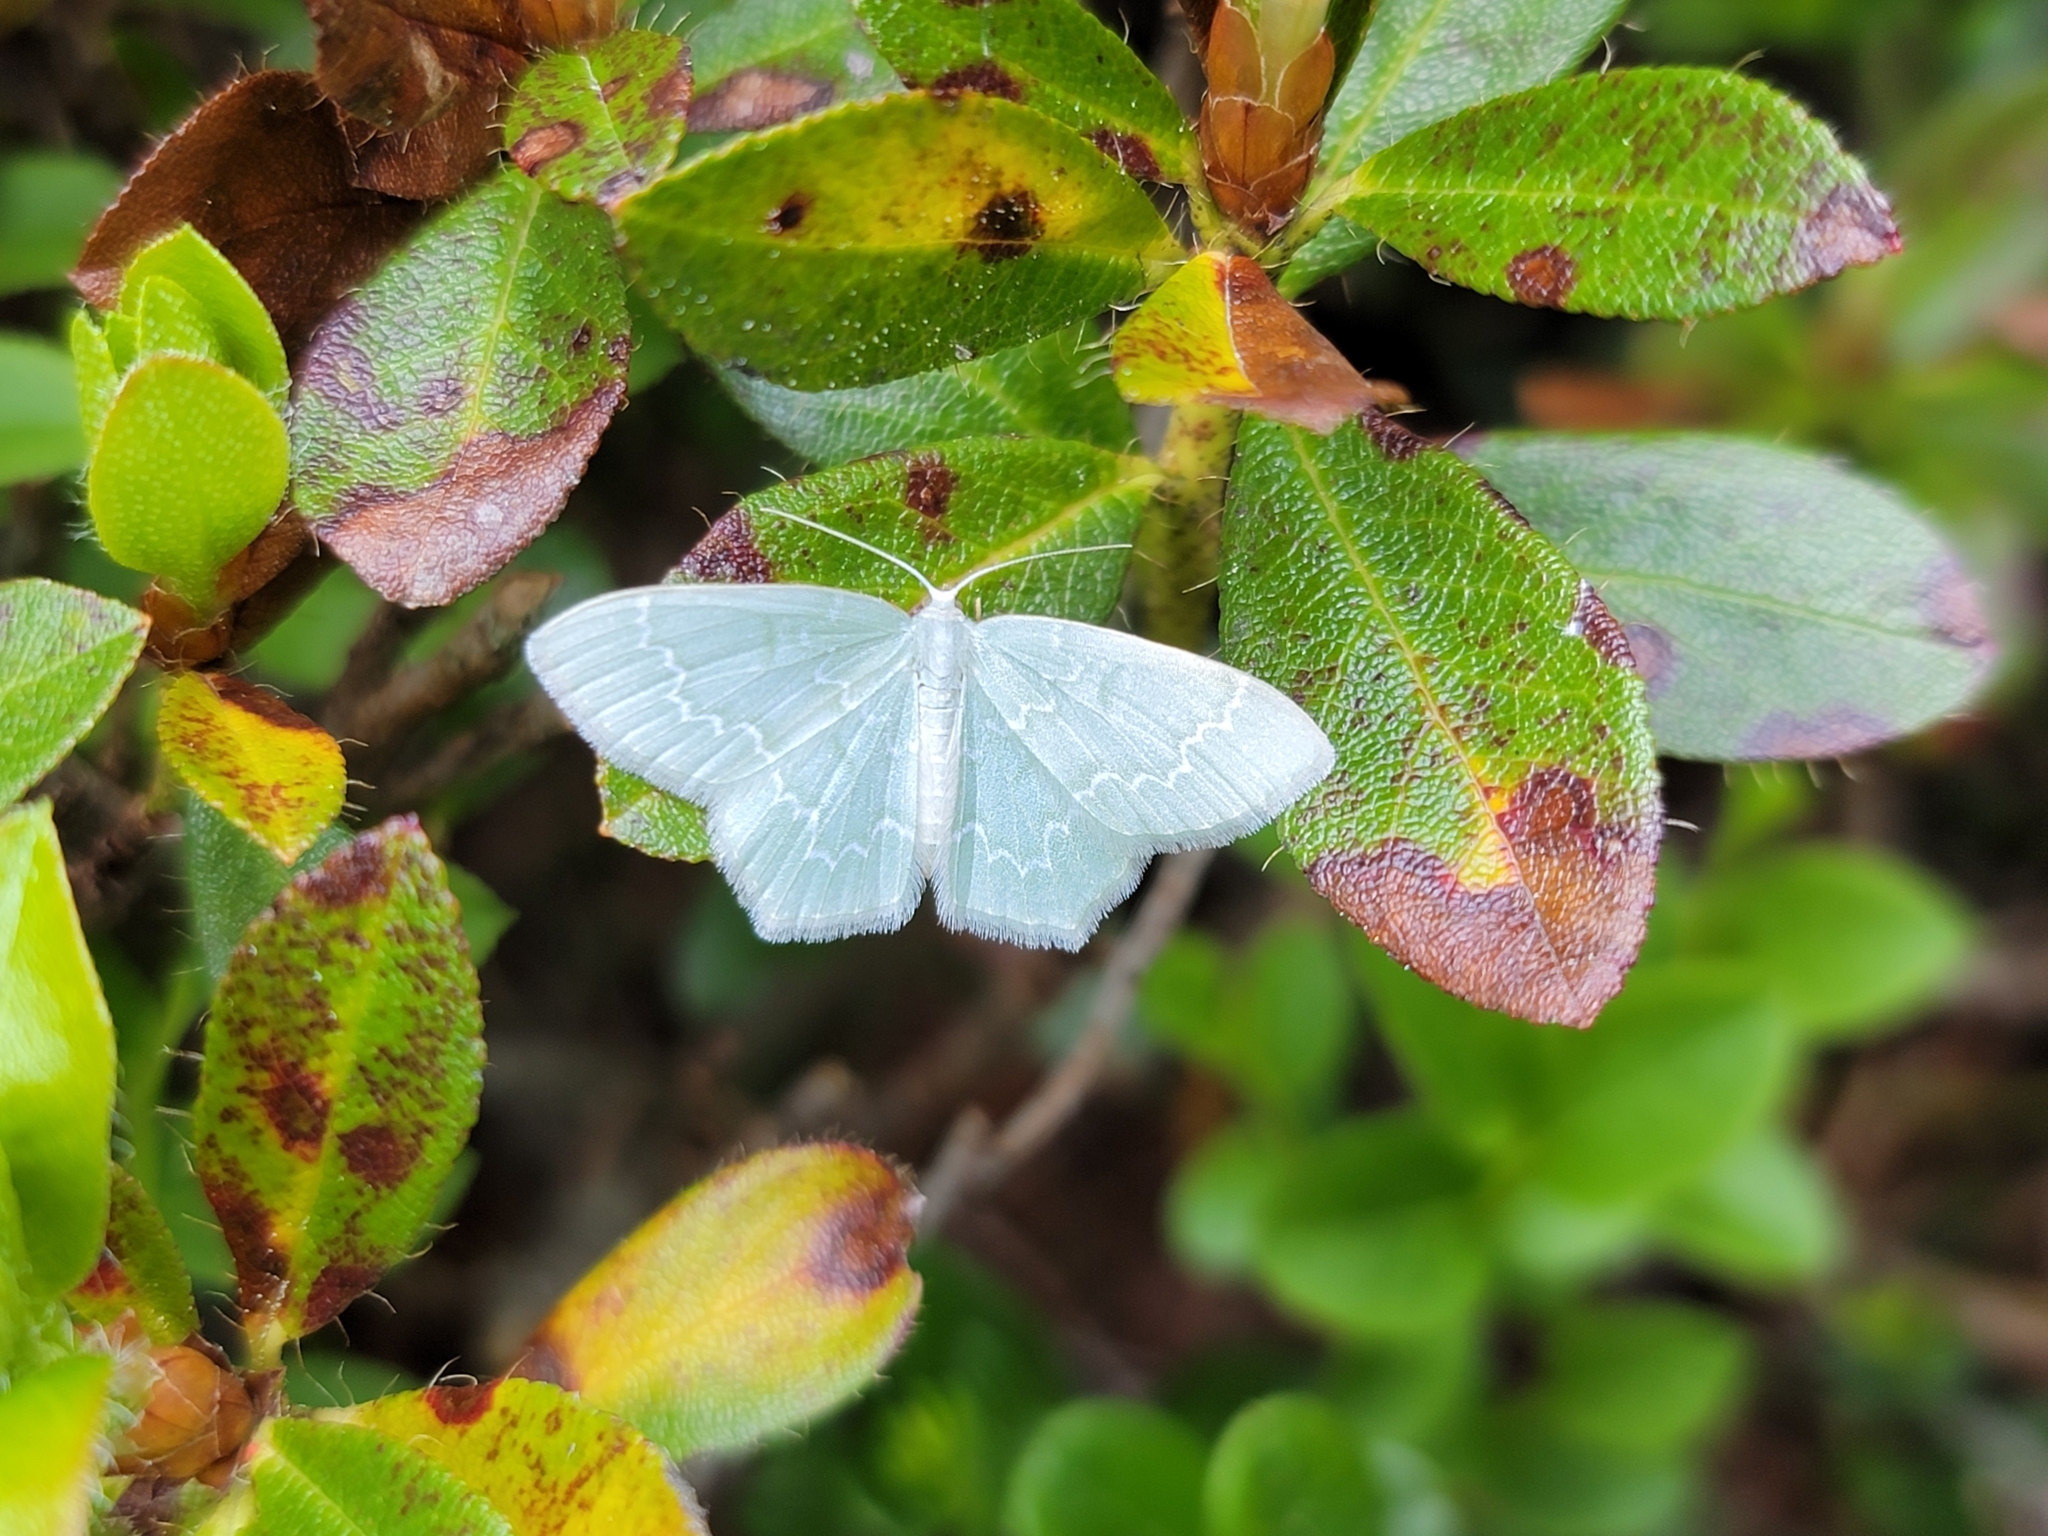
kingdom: Animalia
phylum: Arthropoda
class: Insecta
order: Lepidoptera
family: Geometridae
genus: Jodis
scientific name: Jodis putata
